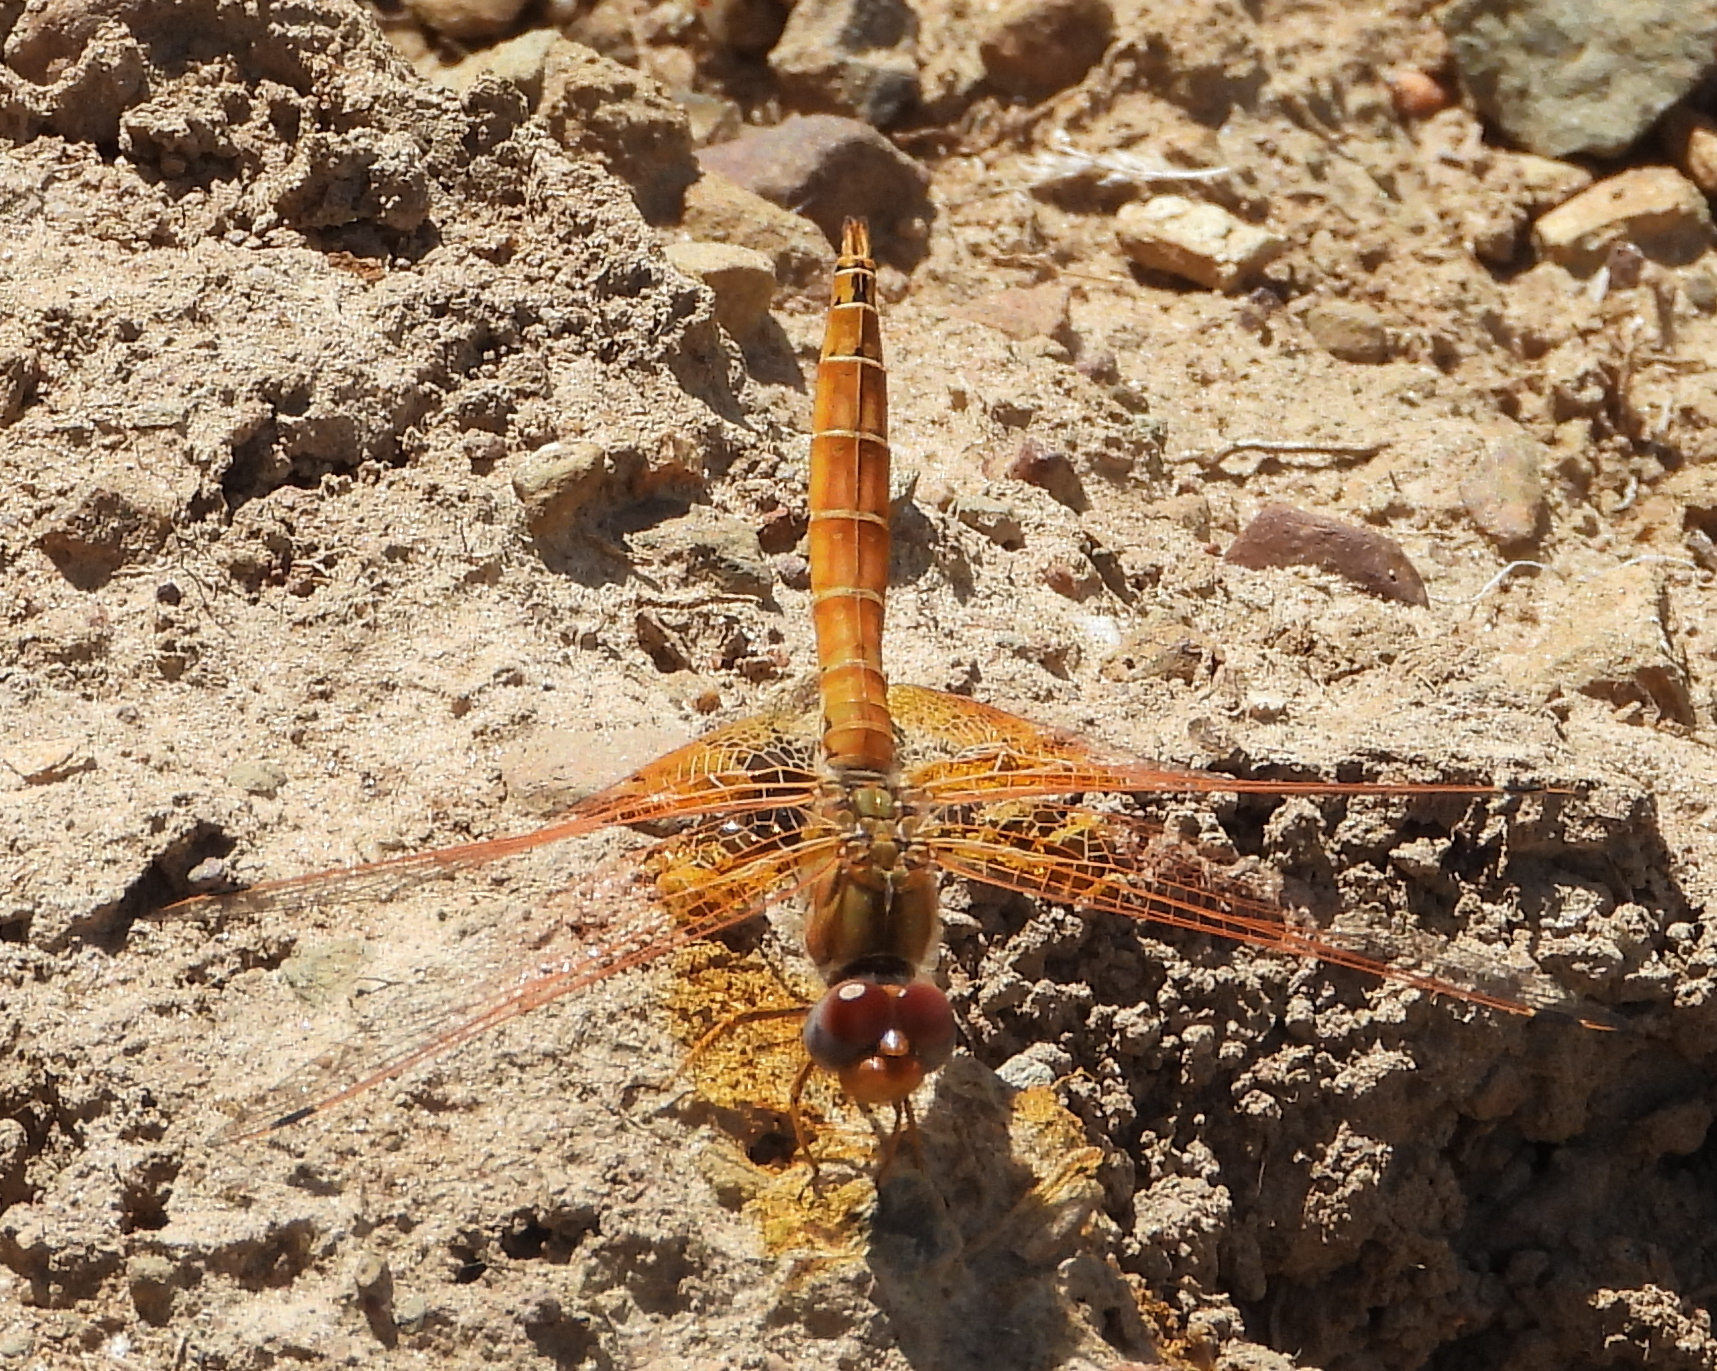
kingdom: Animalia
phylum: Arthropoda
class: Insecta
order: Odonata
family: Libellulidae
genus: Trithemis
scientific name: Trithemis kirbyi
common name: Kirby's dropwing
